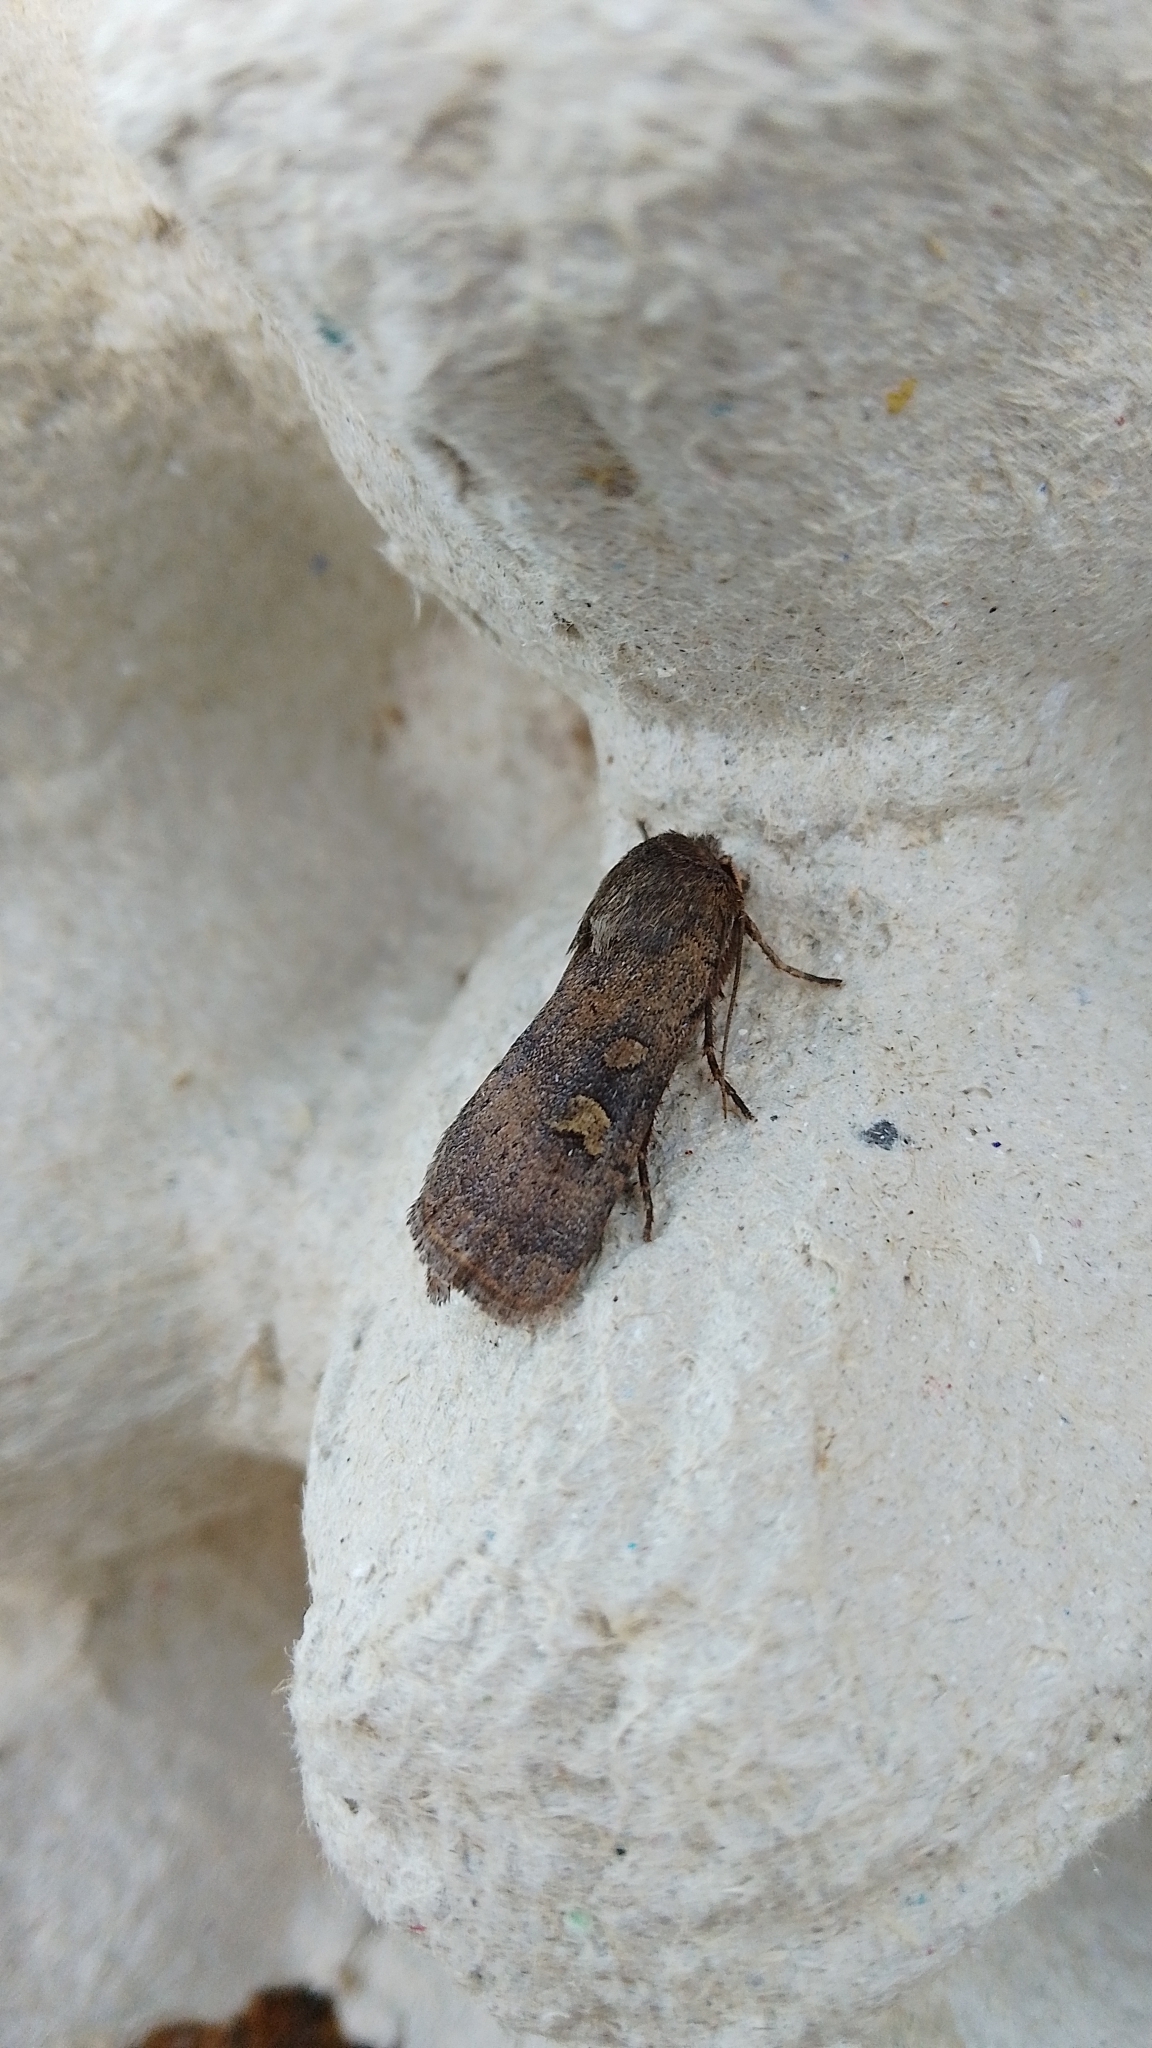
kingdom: Animalia
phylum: Arthropoda
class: Insecta
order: Lepidoptera
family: Noctuidae
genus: Xestia
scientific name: Xestia xanthographa
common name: Square-spot rustic
